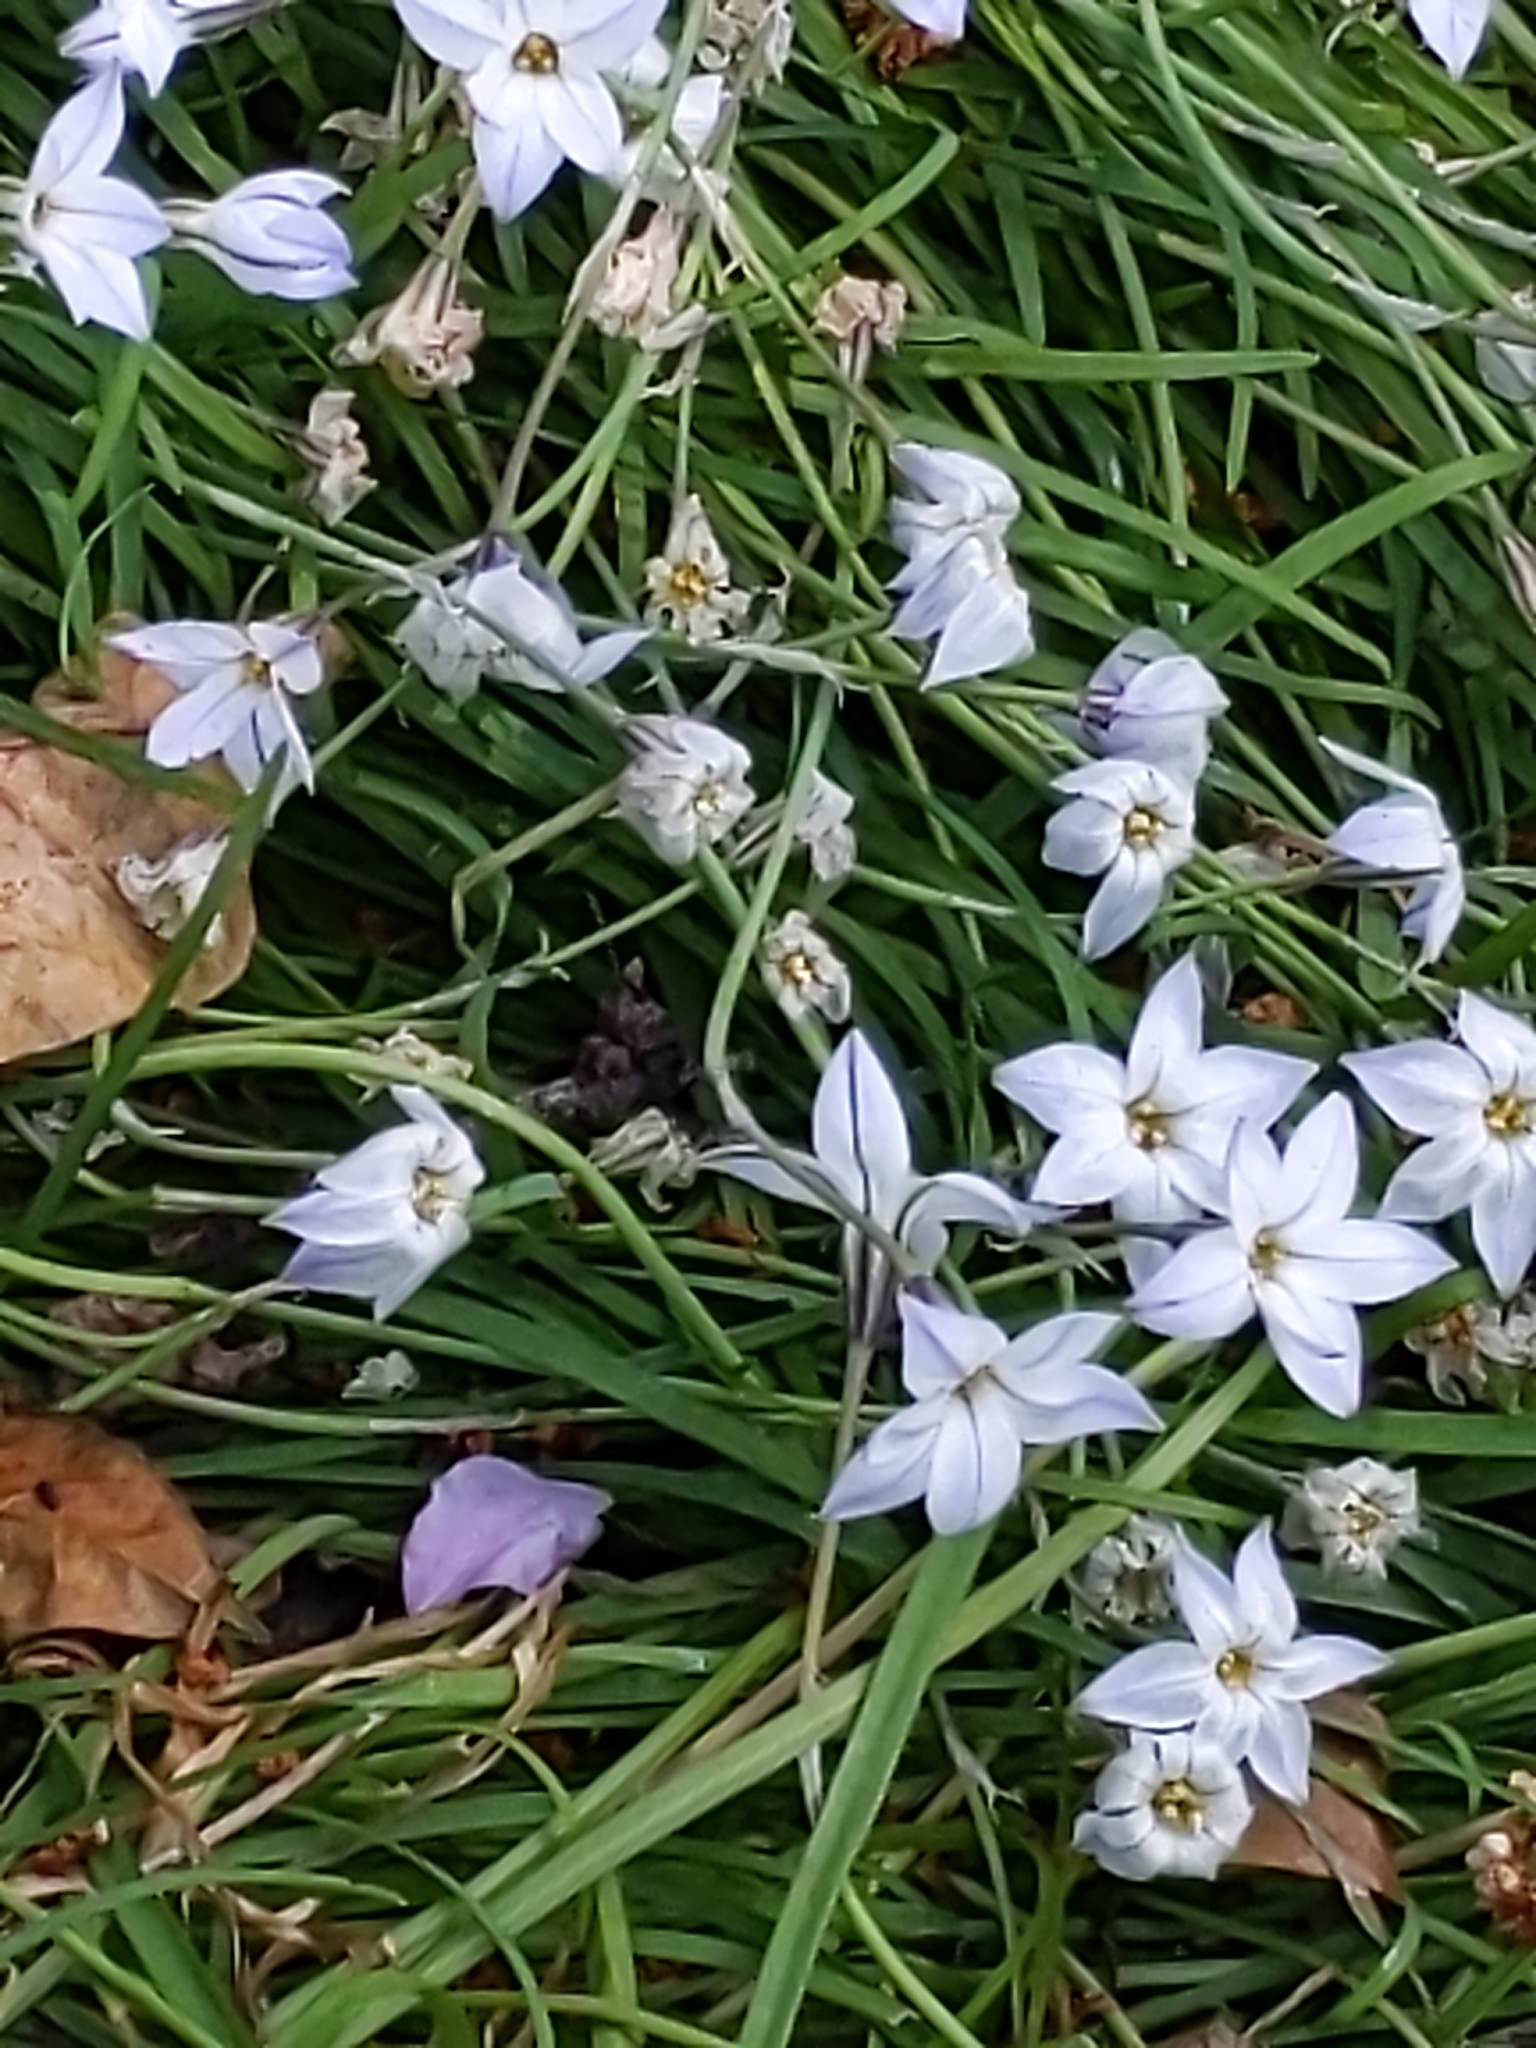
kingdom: Plantae
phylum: Tracheophyta
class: Liliopsida
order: Asparagales
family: Amaryllidaceae
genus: Ipheion
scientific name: Ipheion uniflorum
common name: Spring starflower
